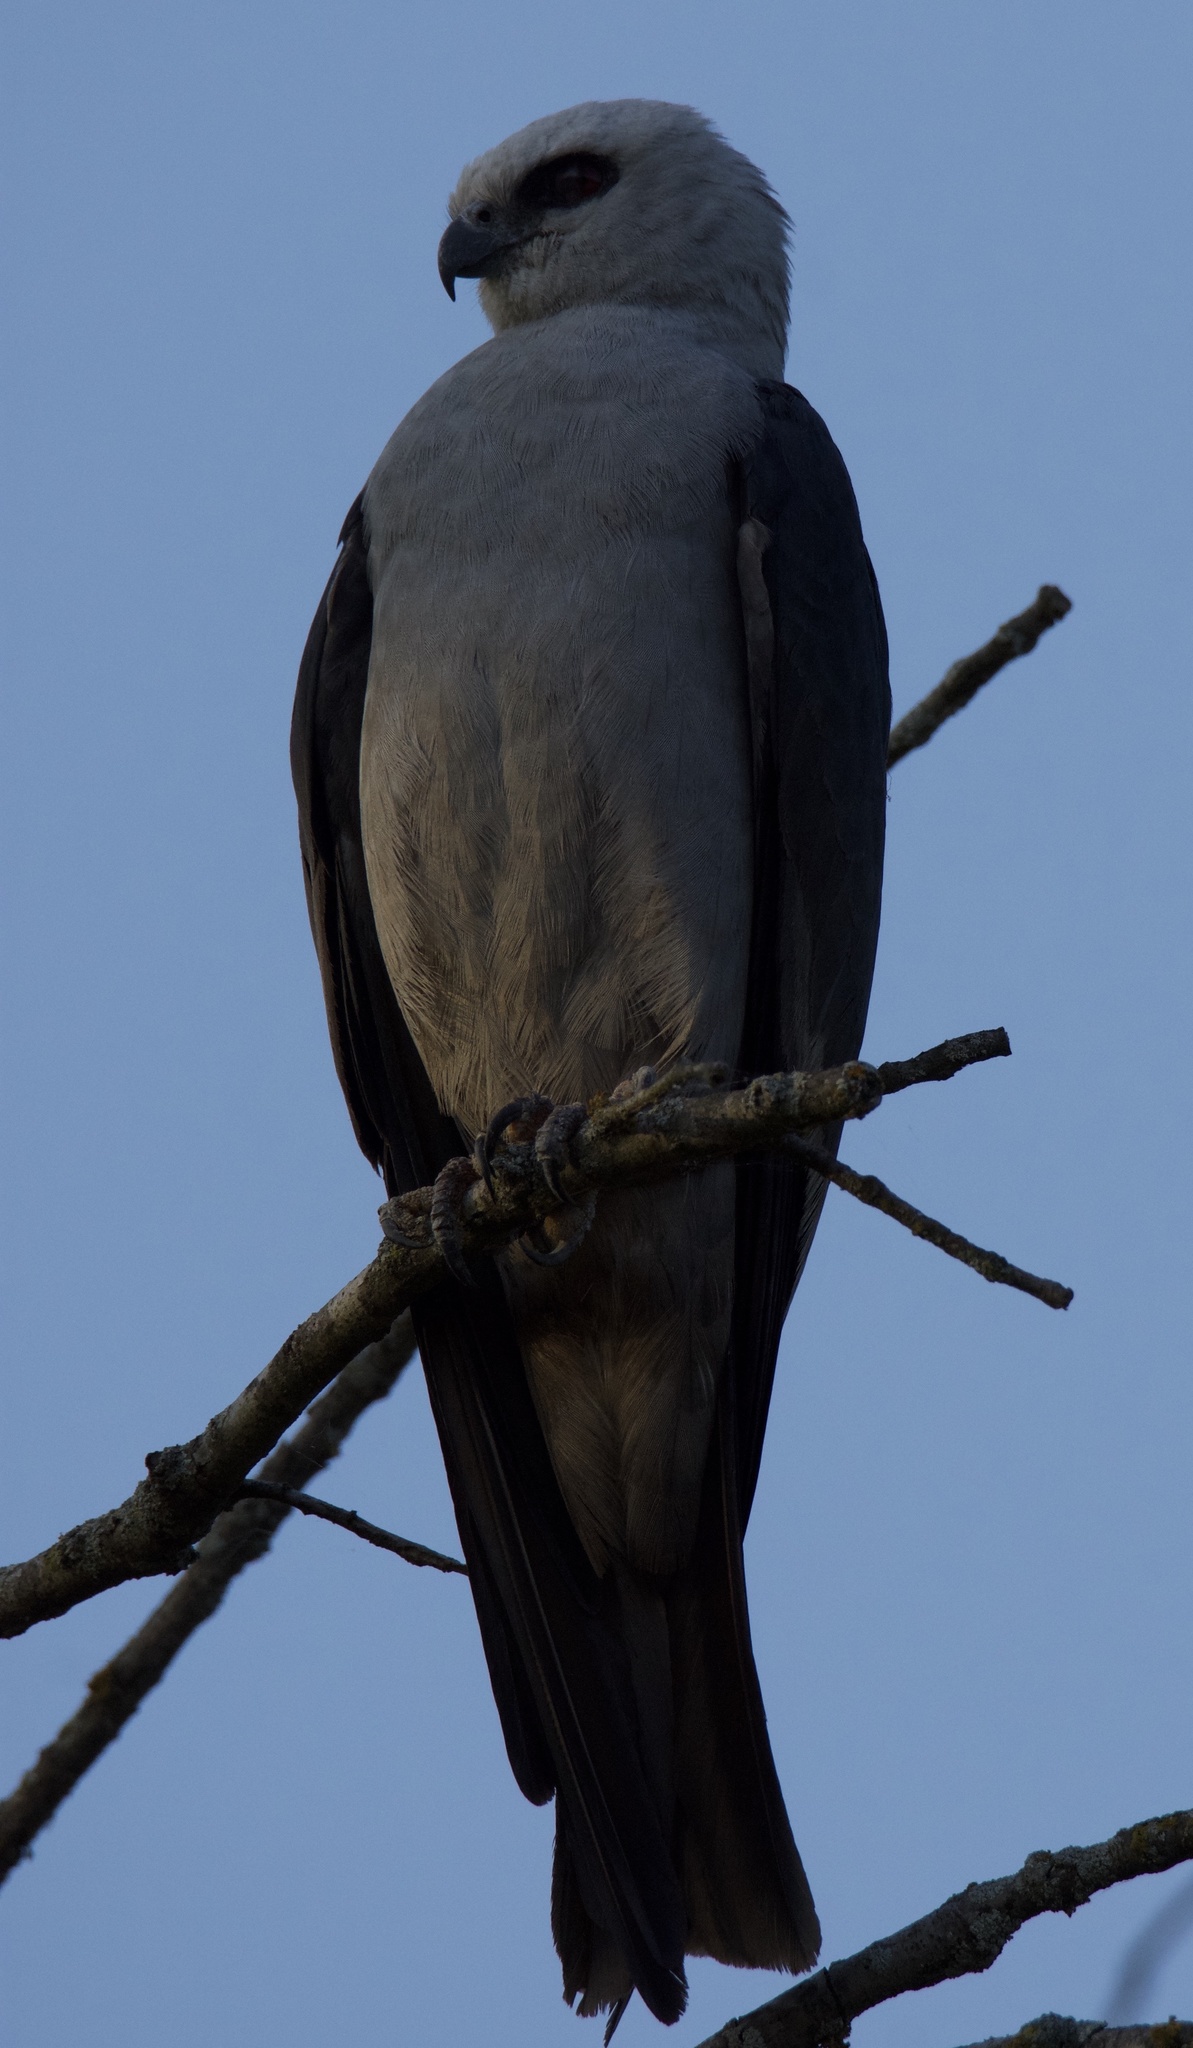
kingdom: Animalia
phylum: Chordata
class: Aves
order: Accipitriformes
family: Accipitridae
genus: Ictinia
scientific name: Ictinia mississippiensis
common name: Mississippi kite
